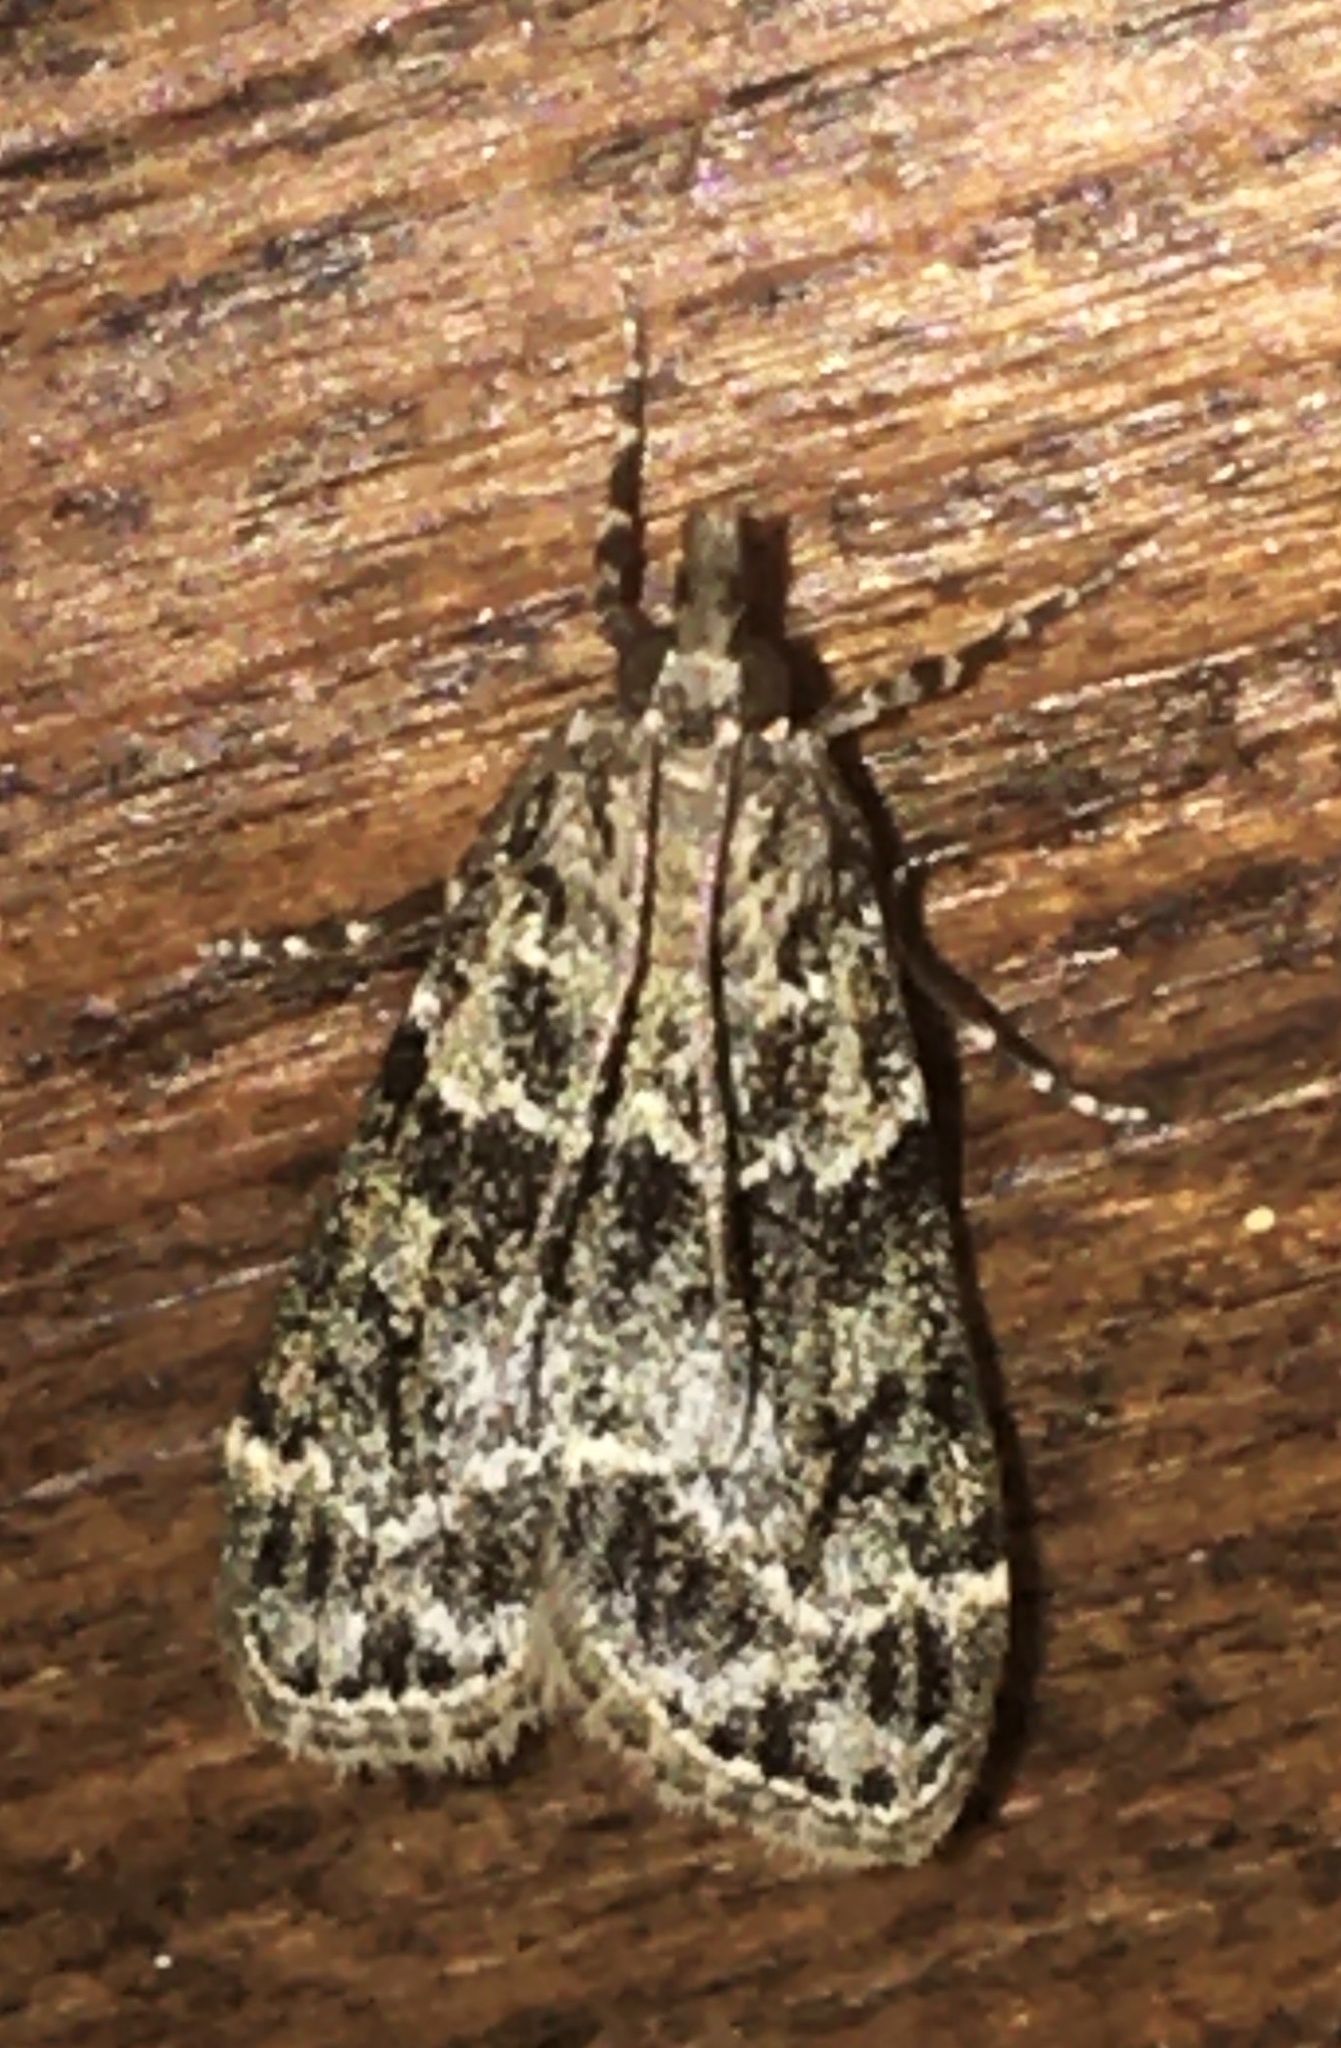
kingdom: Animalia
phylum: Arthropoda
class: Insecta
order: Lepidoptera
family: Crambidae
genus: Eudonia
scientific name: Eudonia mercurella
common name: Small grey
